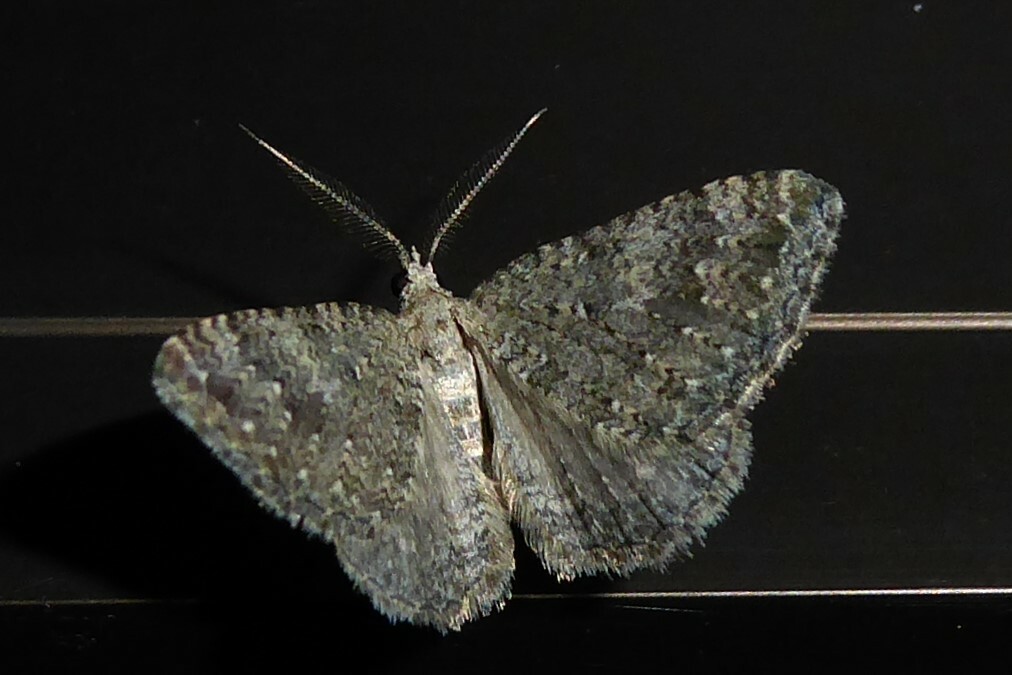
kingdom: Animalia
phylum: Arthropoda
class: Insecta
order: Lepidoptera
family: Geometridae
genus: Helastia
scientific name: Helastia corcularia
